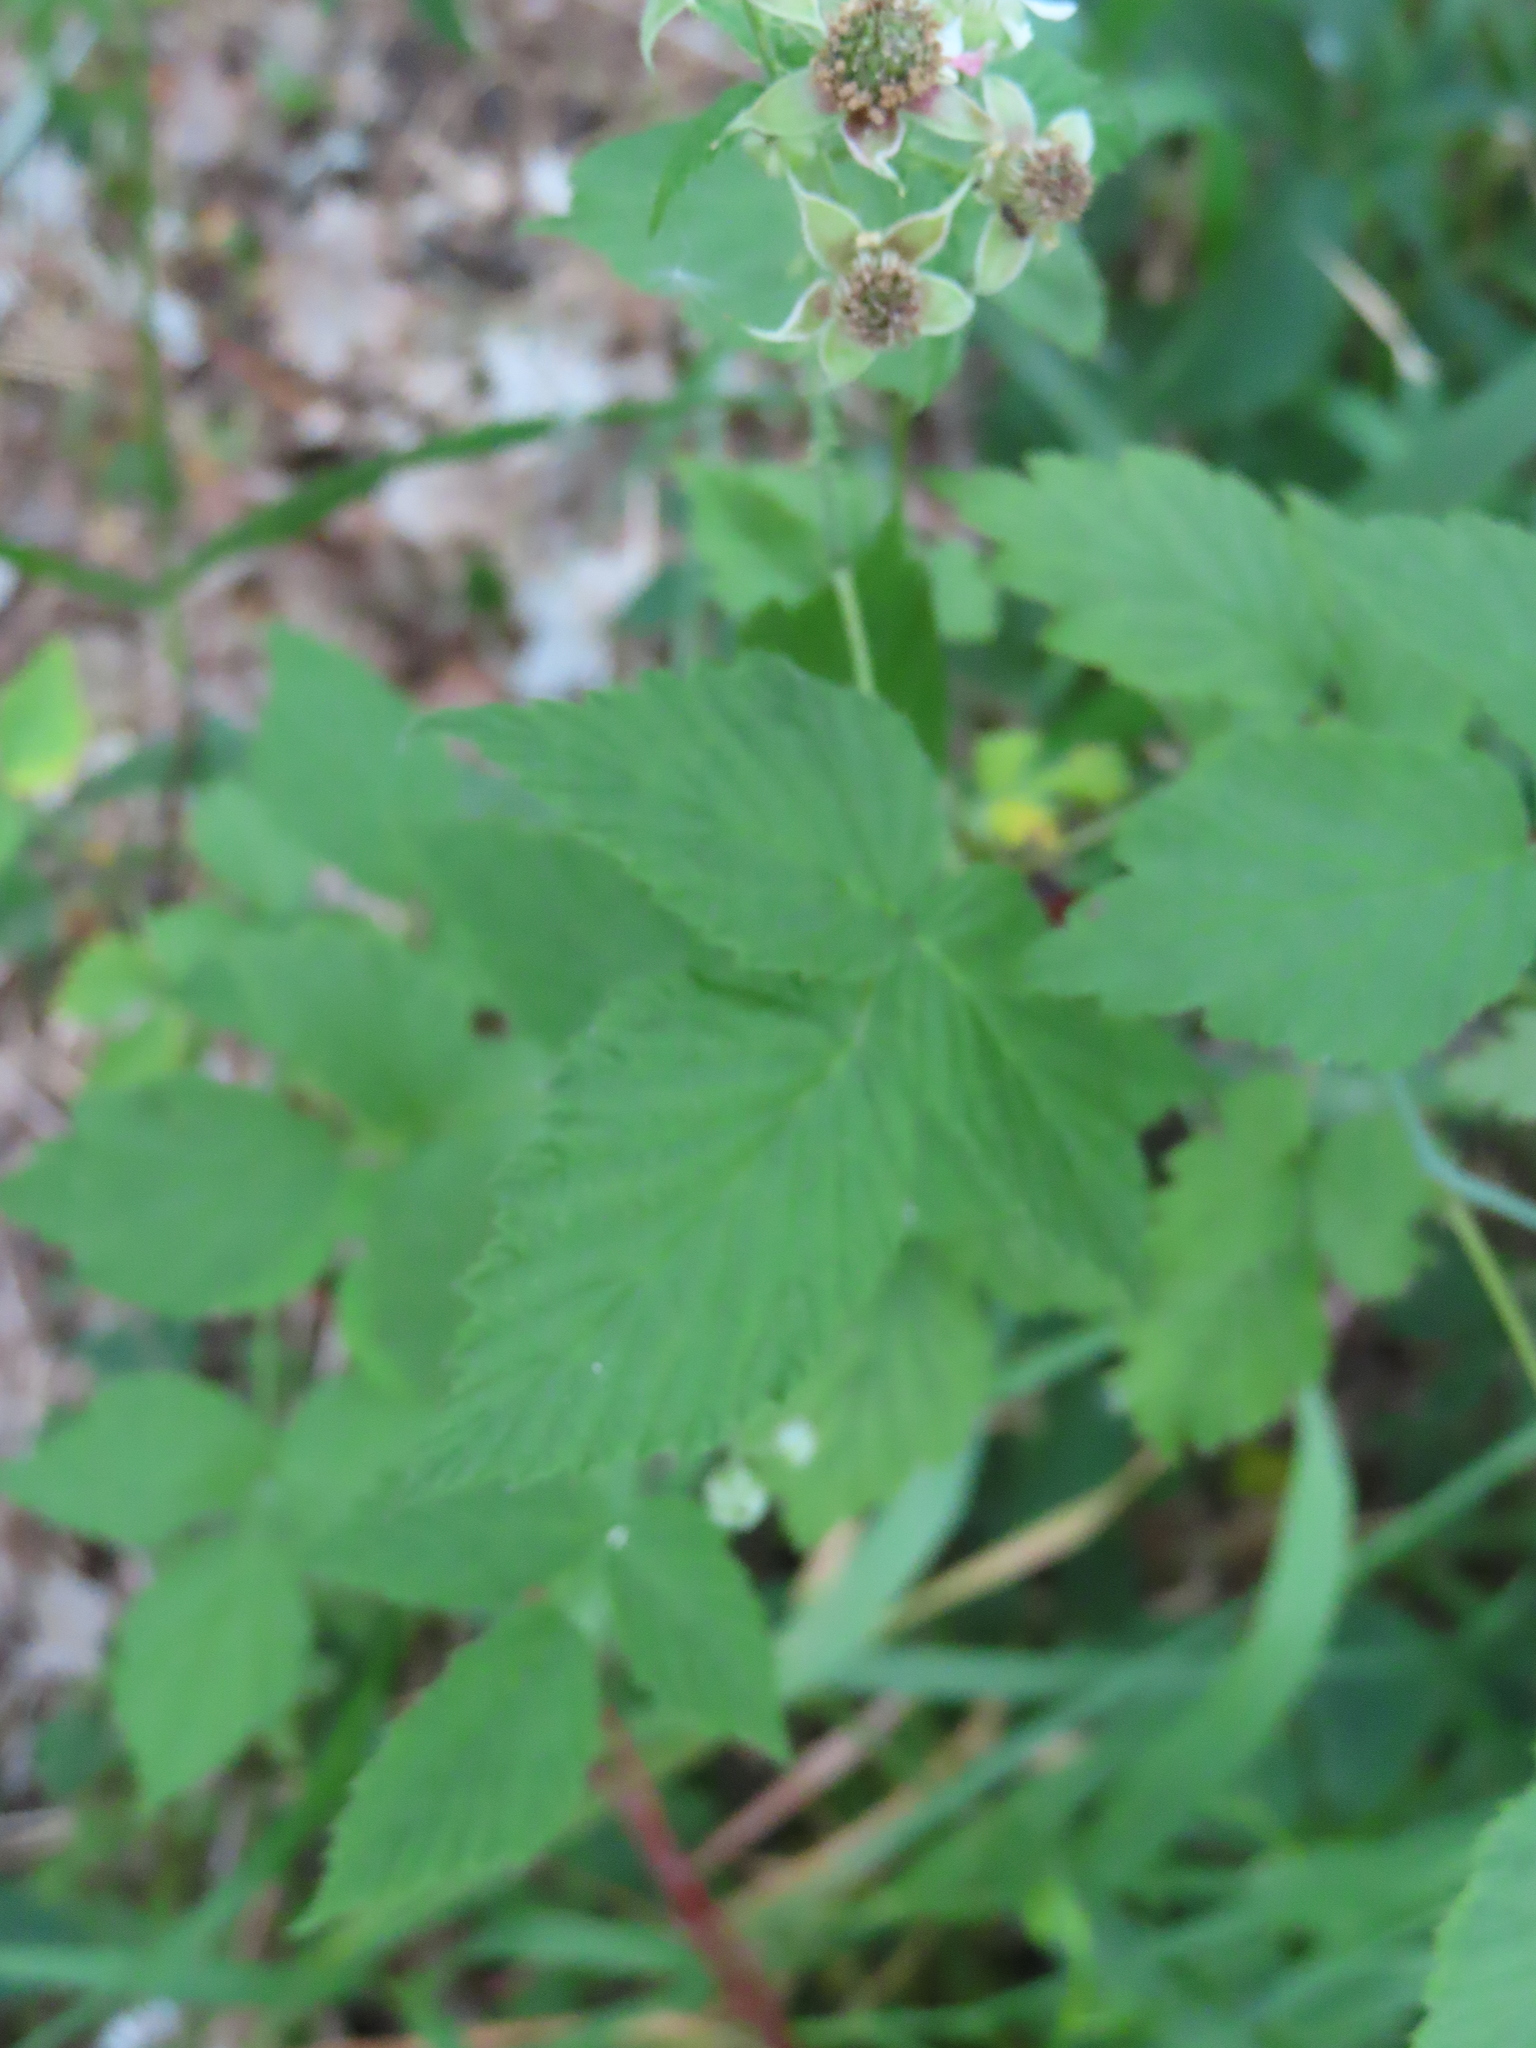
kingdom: Plantae
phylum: Tracheophyta
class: Magnoliopsida
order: Rosales
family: Rosaceae
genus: Rubus
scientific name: Rubus occidentalis
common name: Black raspberry
